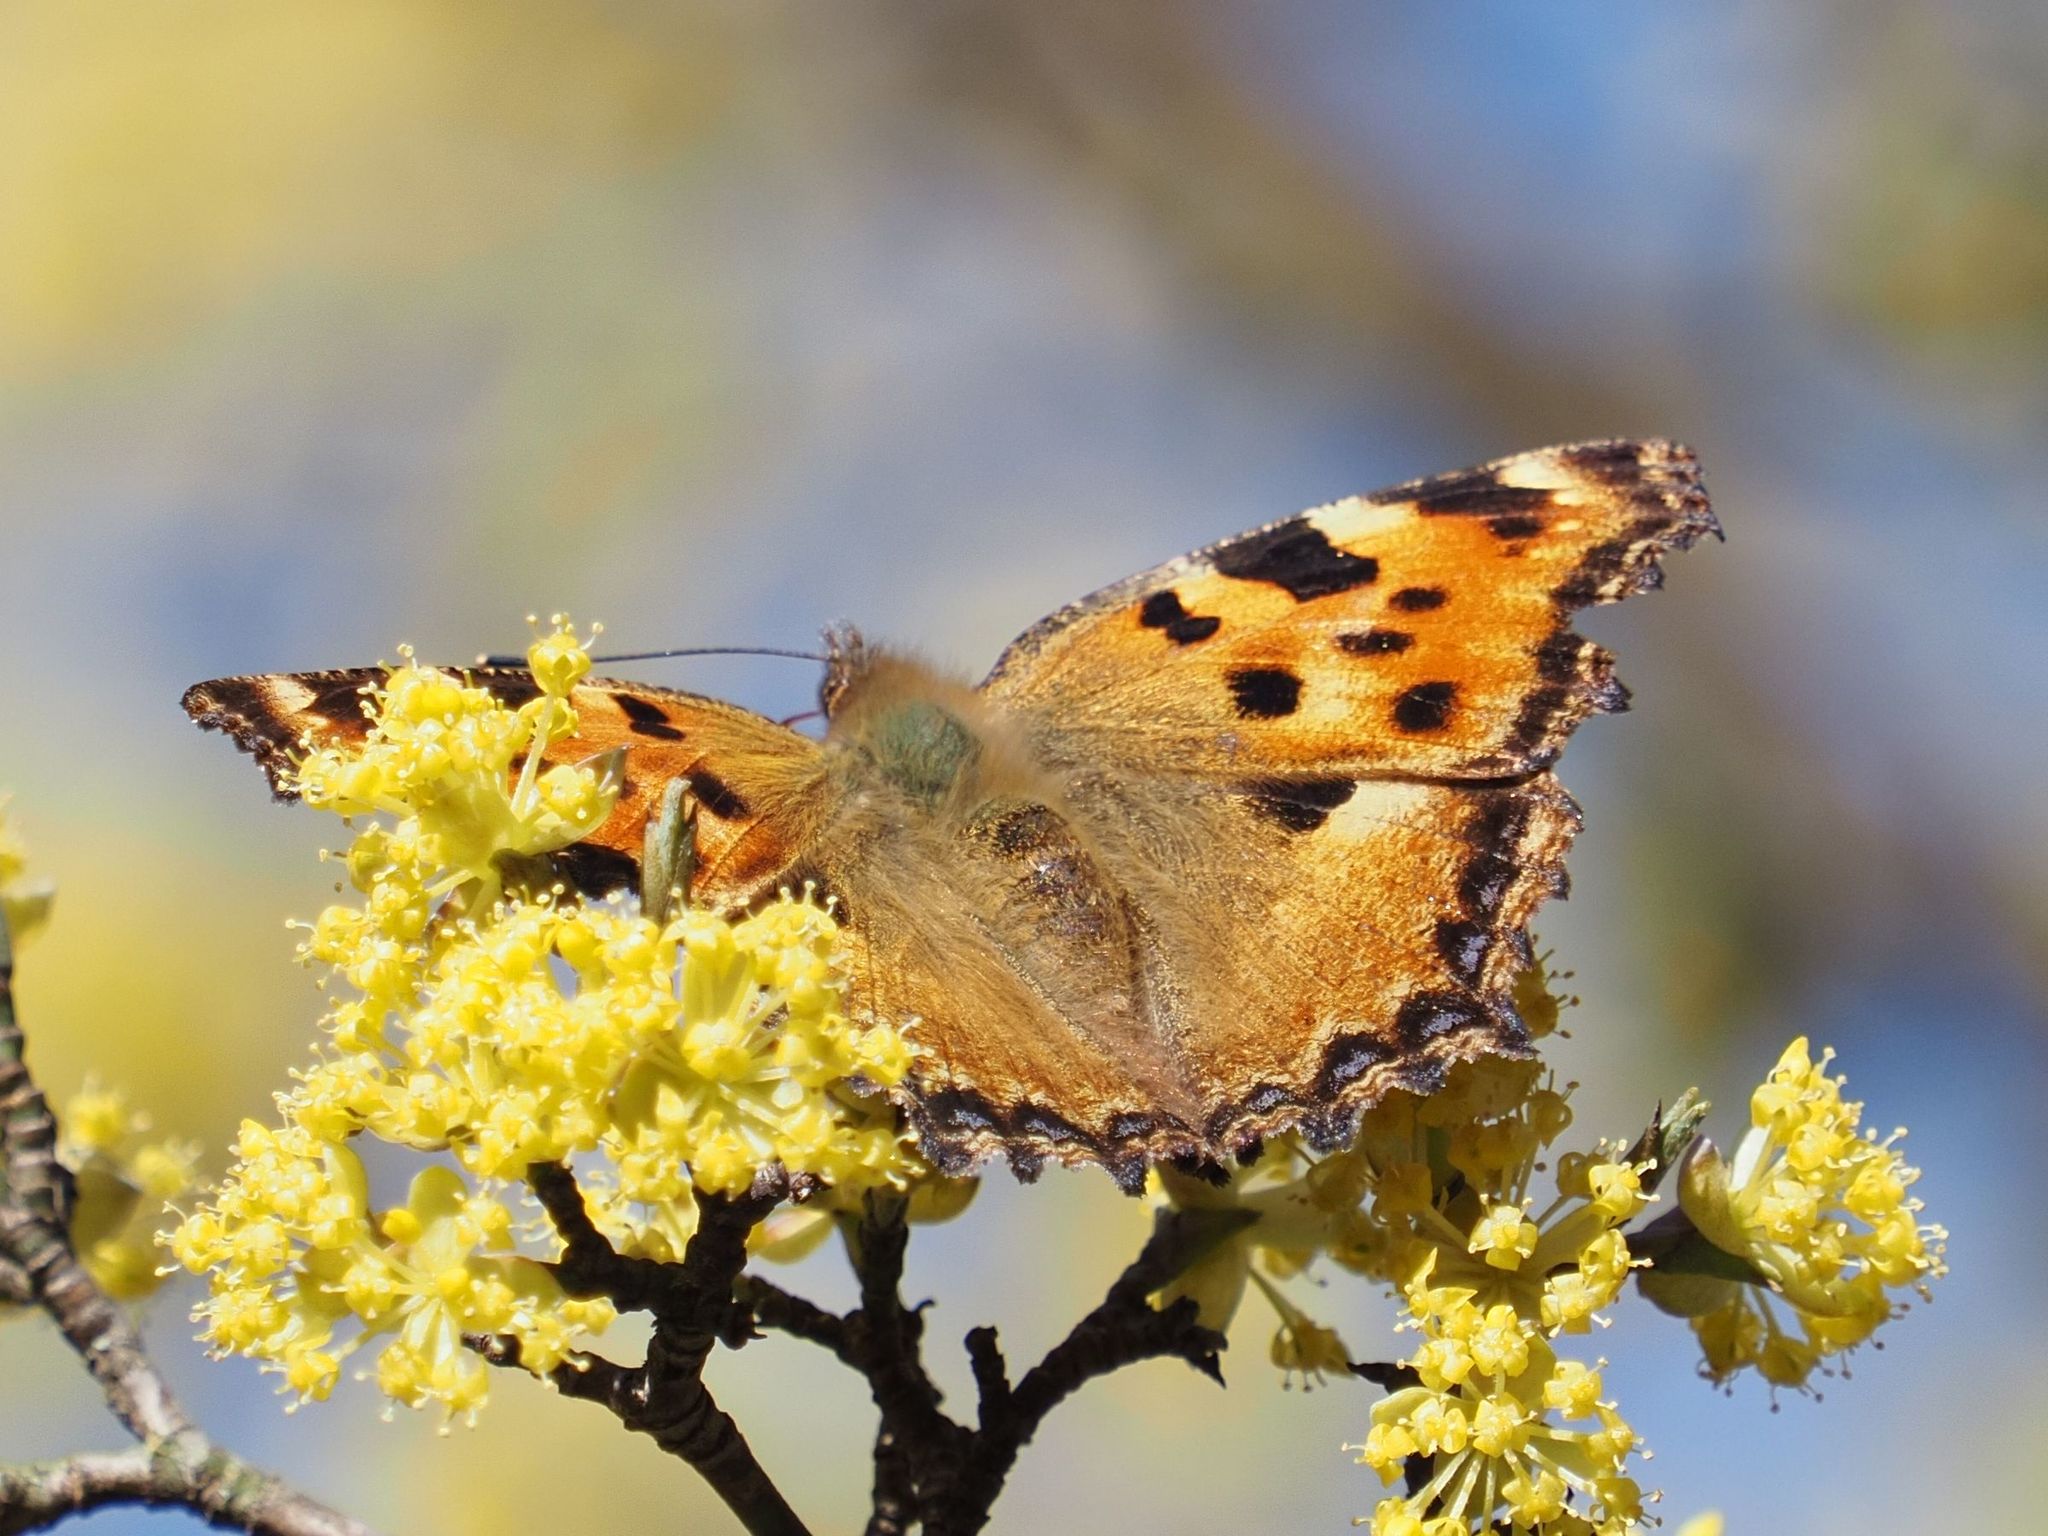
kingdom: Animalia
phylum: Arthropoda
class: Insecta
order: Lepidoptera
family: Nymphalidae
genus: Nymphalis
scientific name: Nymphalis polychloros
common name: Large tortoiseshell
